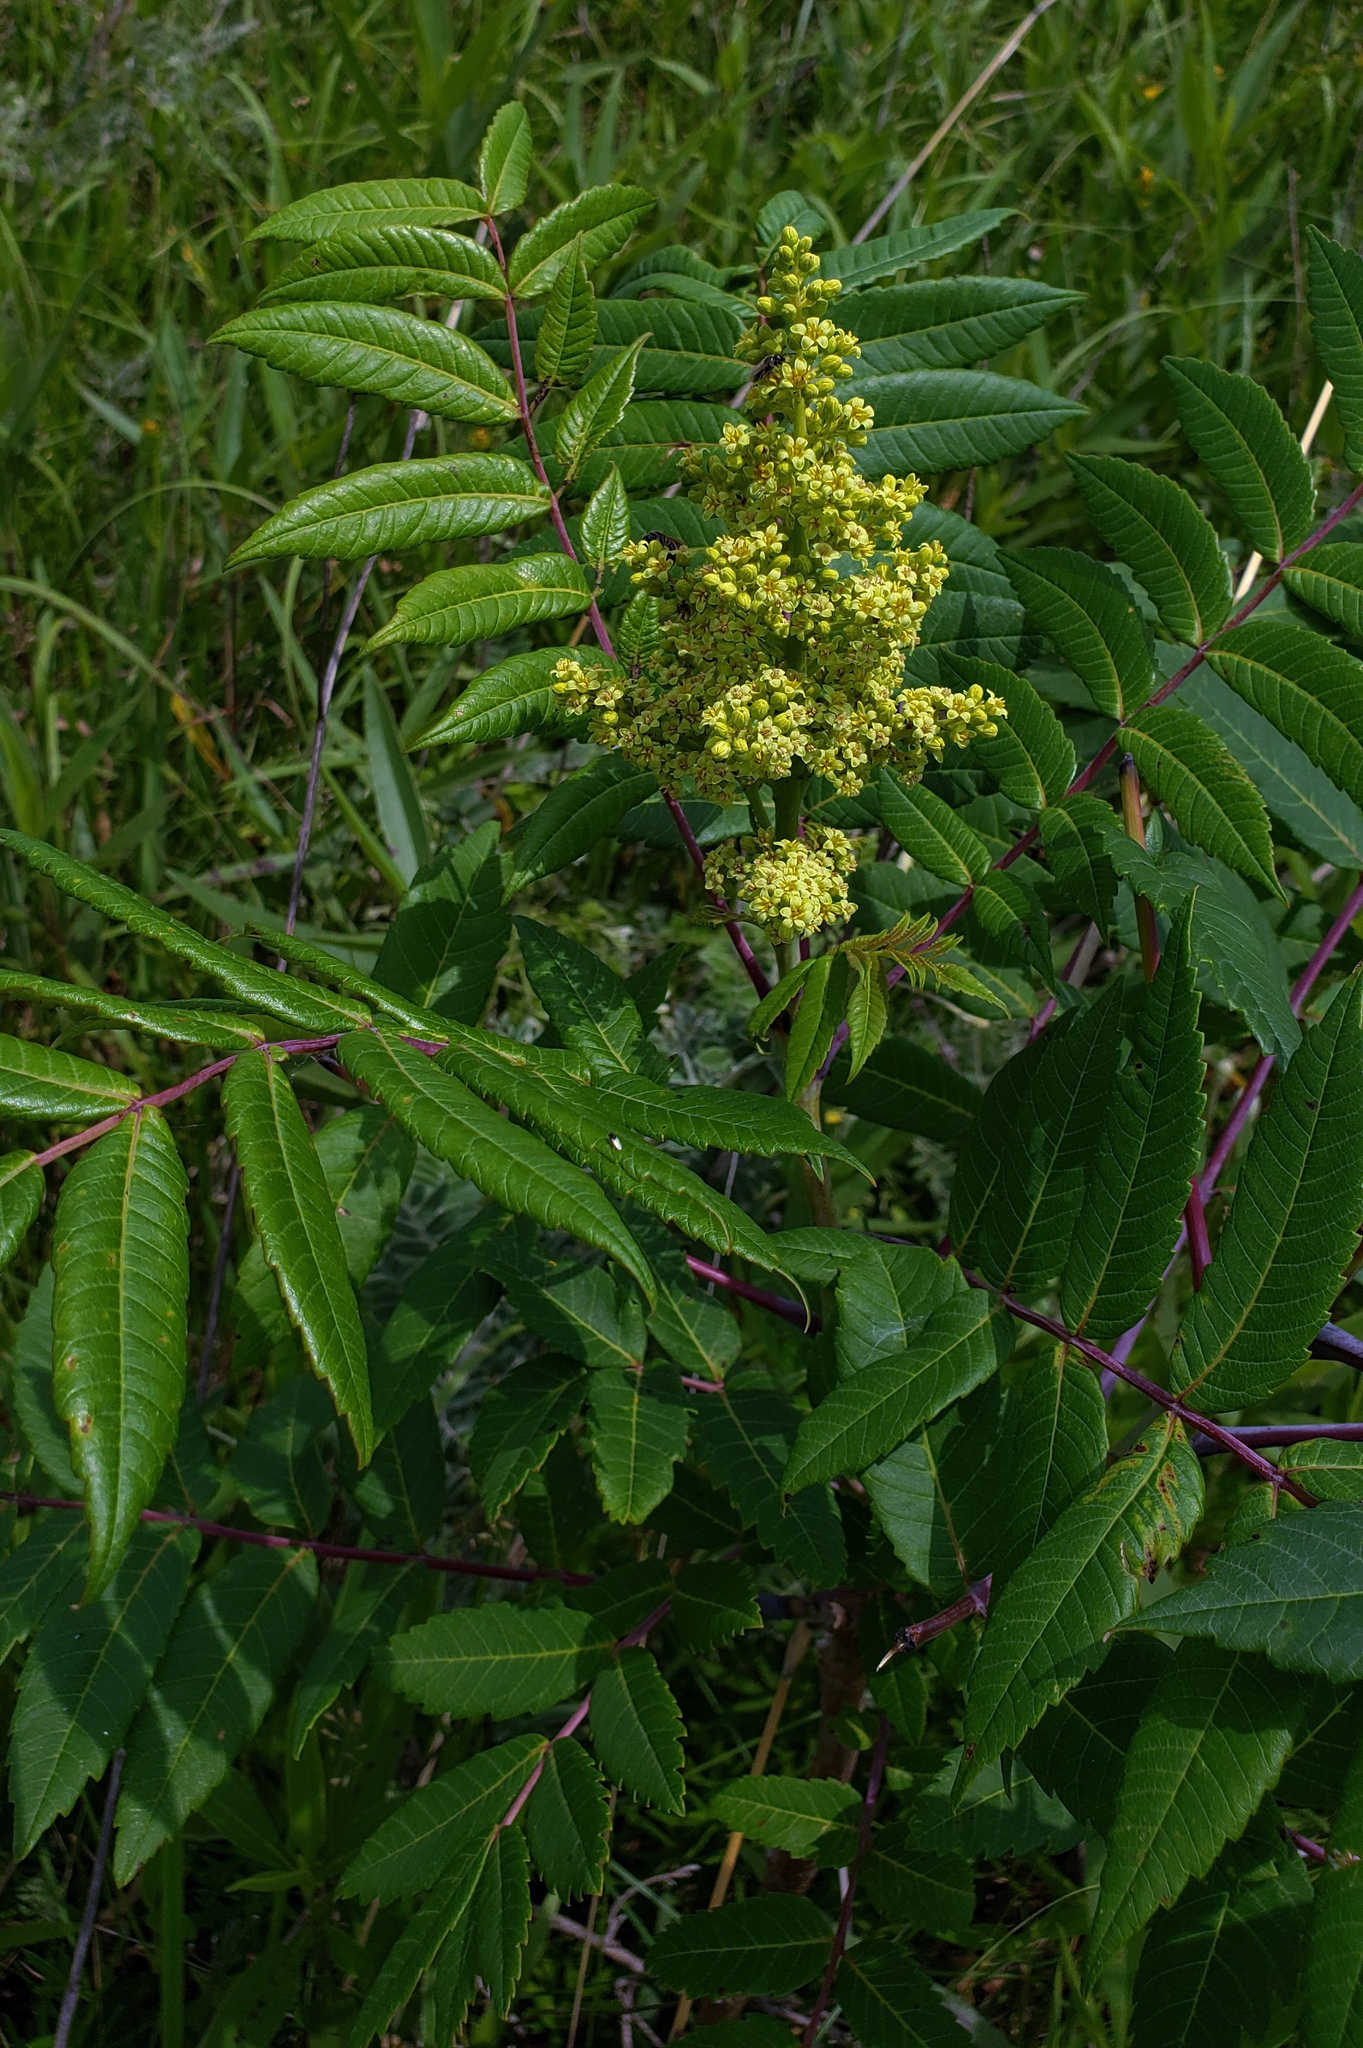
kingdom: Plantae
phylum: Tracheophyta
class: Magnoliopsida
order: Sapindales
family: Anacardiaceae
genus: Rhus
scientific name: Rhus glabra
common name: Scarlet sumac
